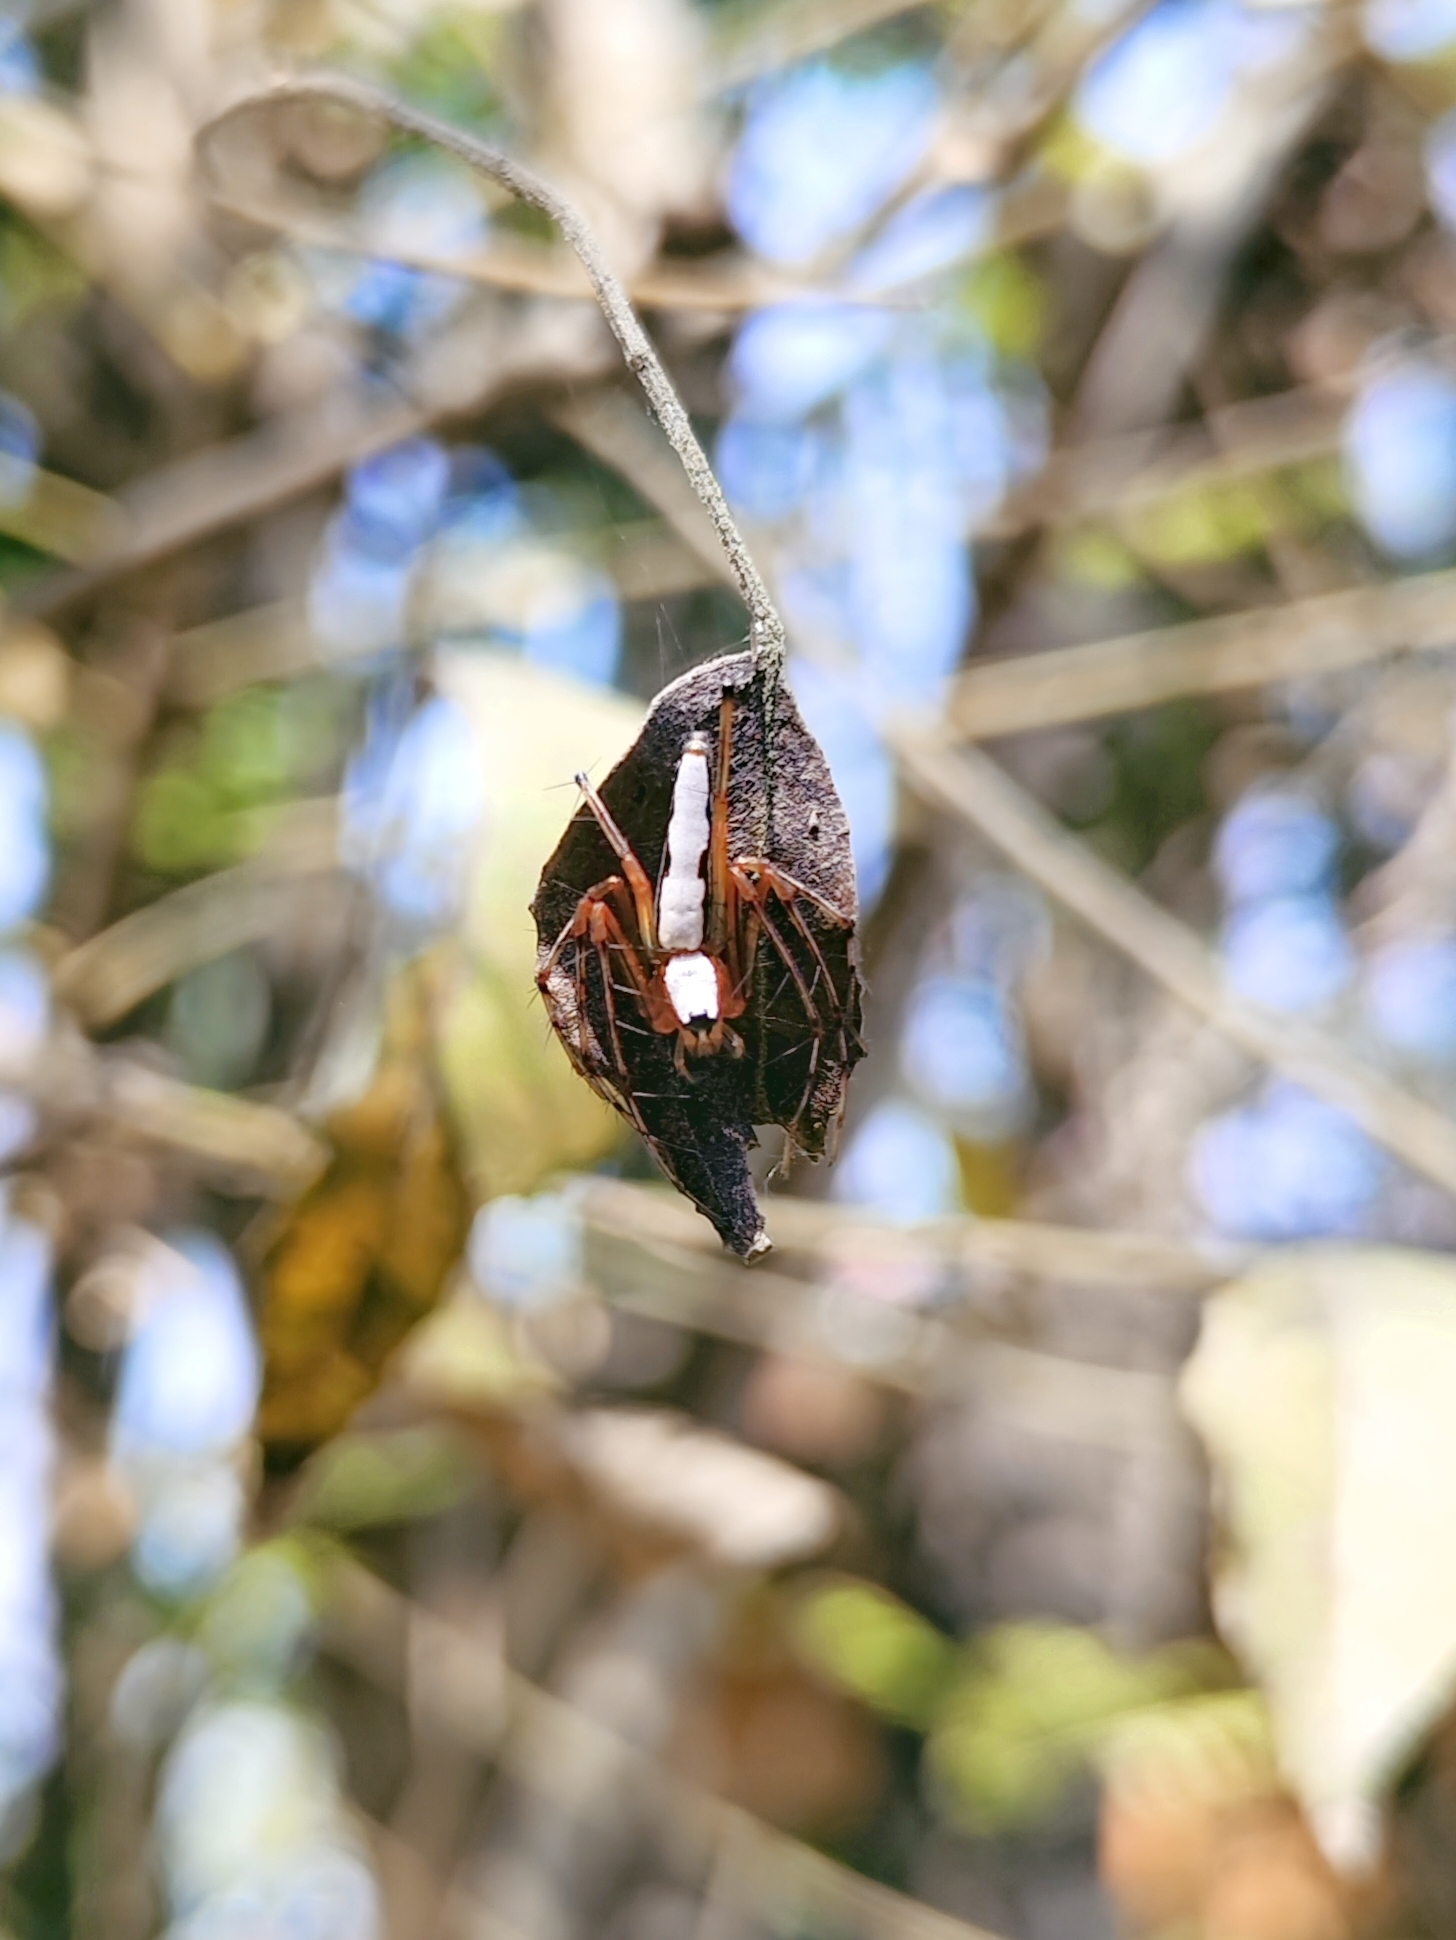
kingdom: Animalia
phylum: Arthropoda
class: Arachnida
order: Araneae
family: Oxyopidae
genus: Oxyopes
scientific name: Oxyopes shweta
